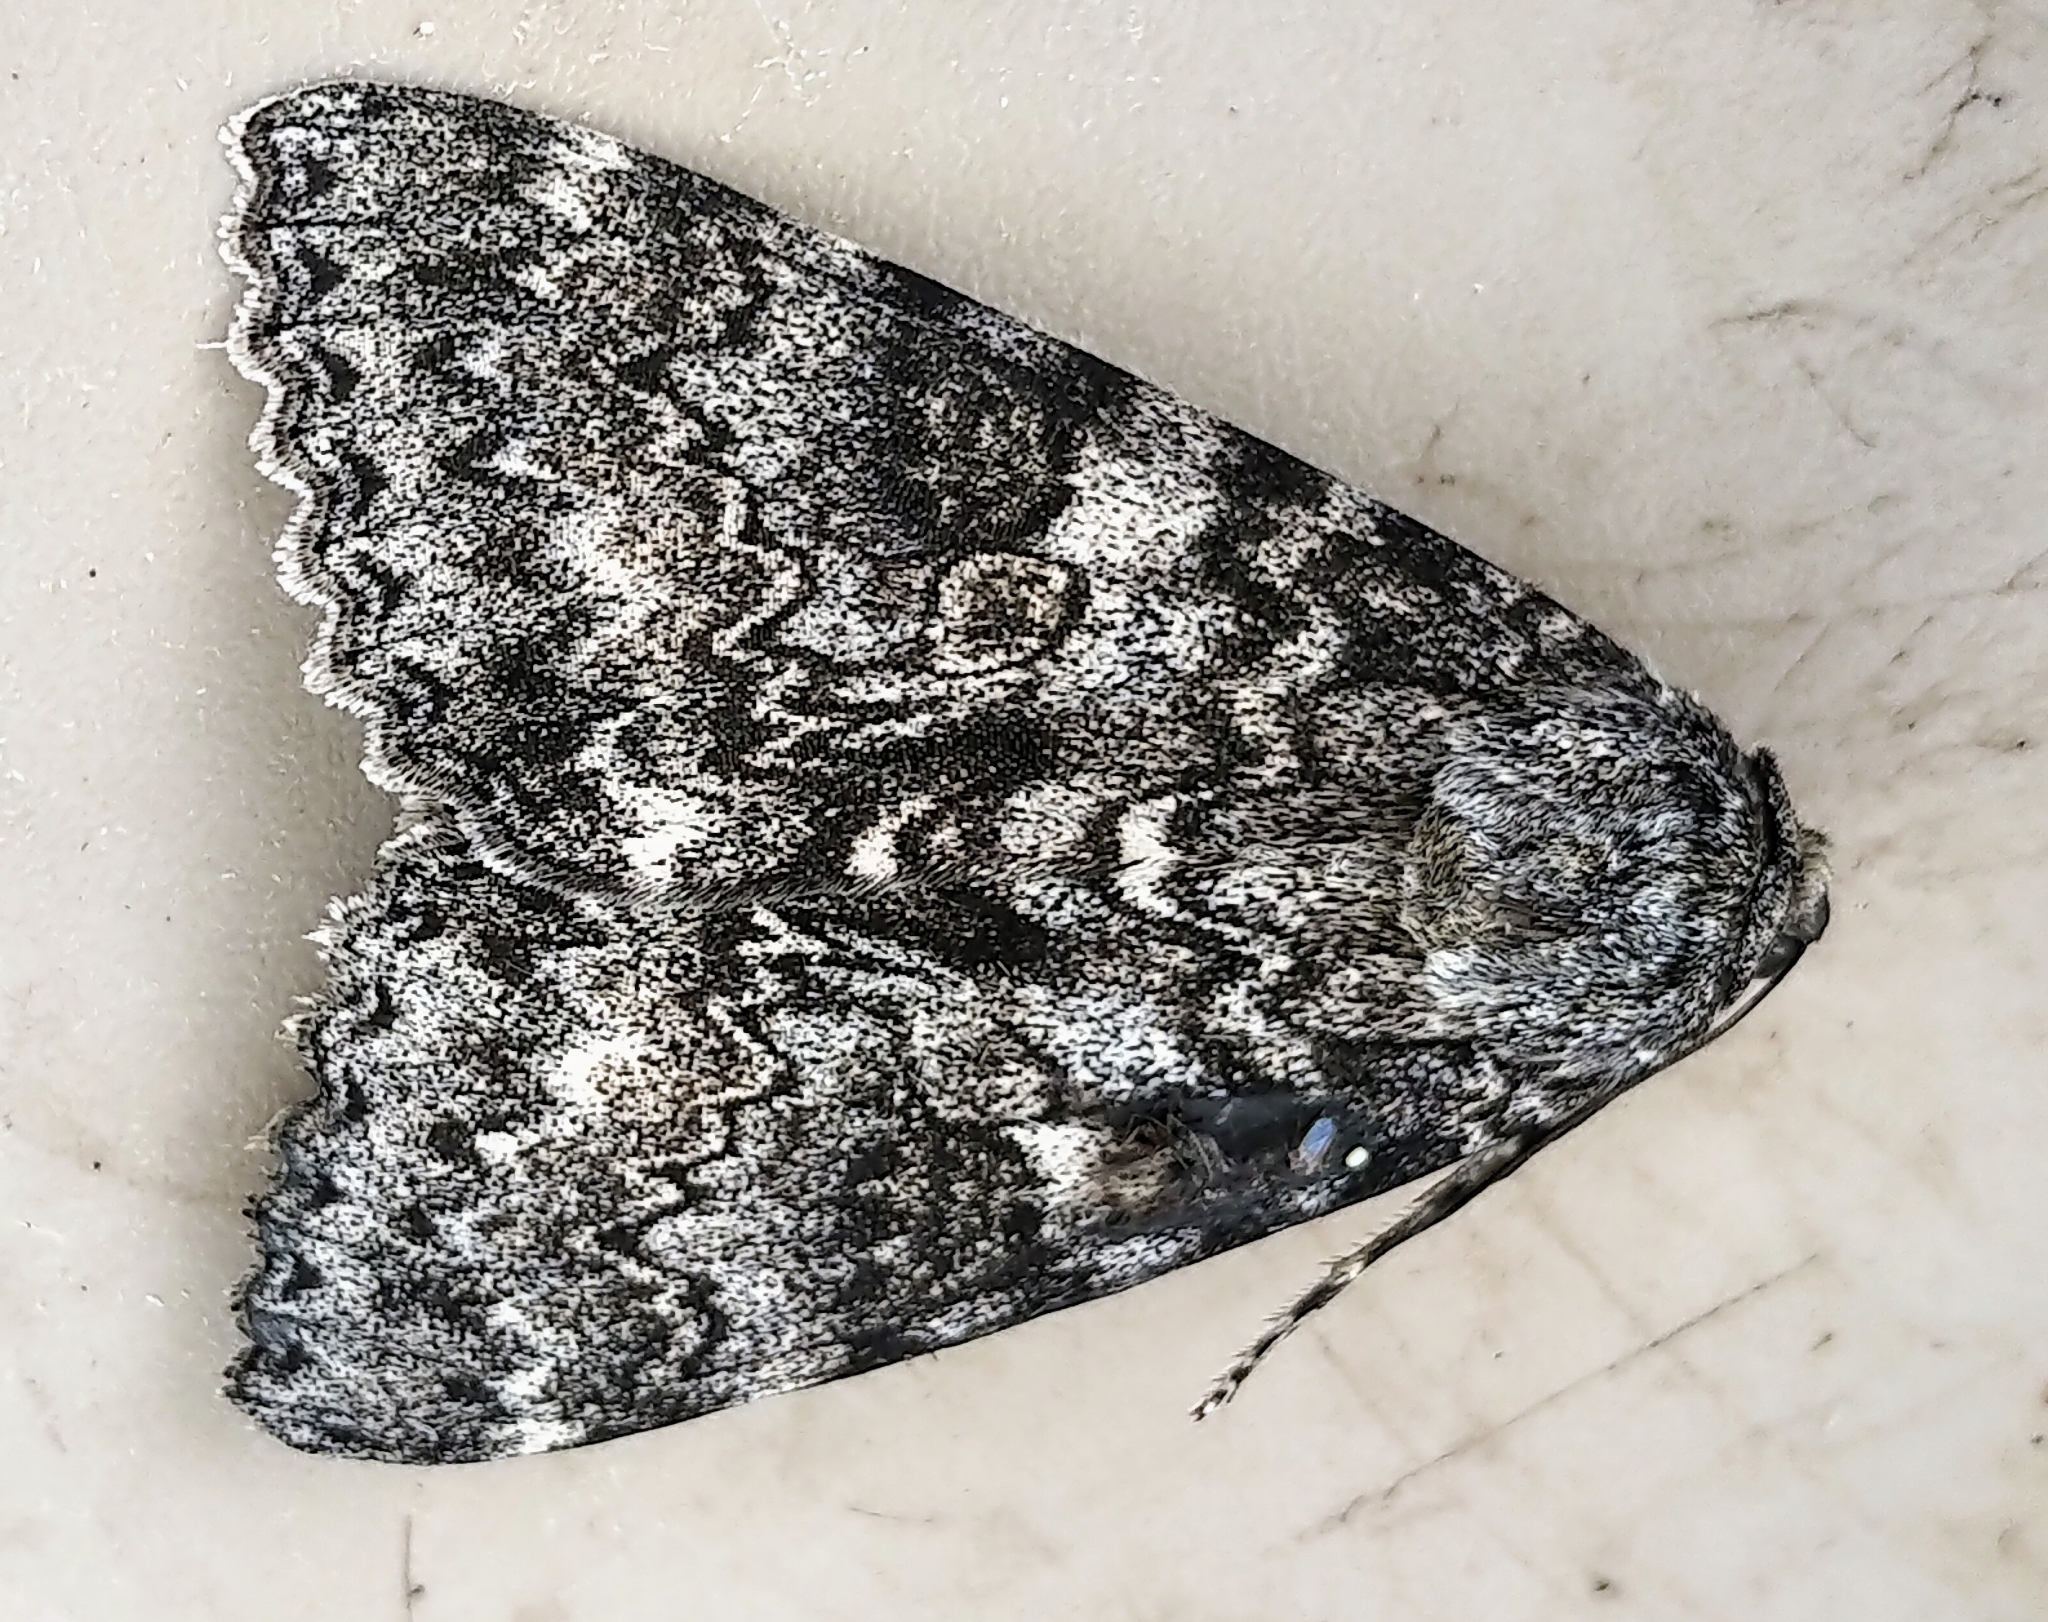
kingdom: Animalia
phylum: Arthropoda
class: Insecta
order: Lepidoptera
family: Erebidae
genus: Catocala
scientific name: Catocala unijuga
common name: Once-married underwing
